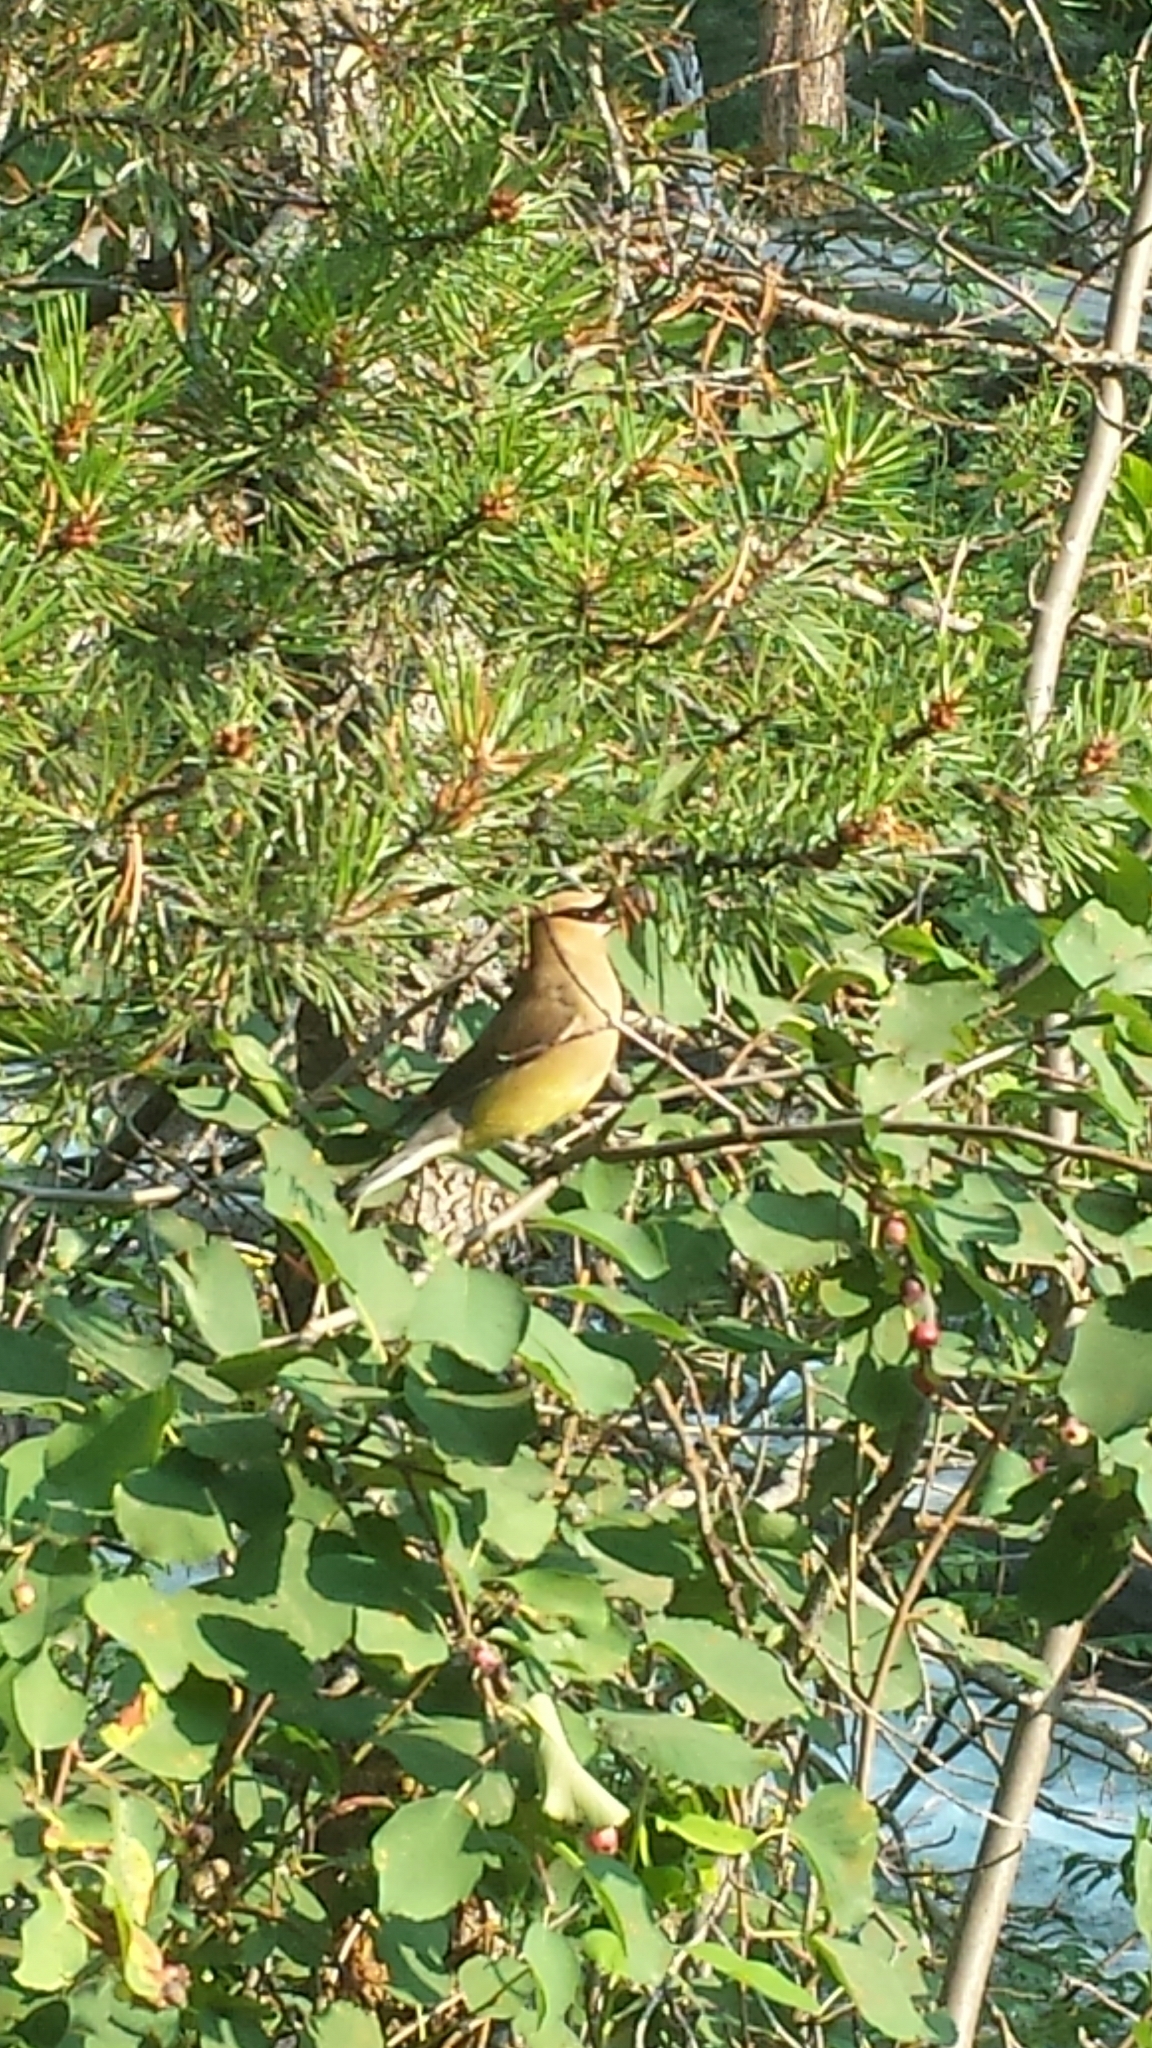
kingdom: Animalia
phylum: Chordata
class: Aves
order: Passeriformes
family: Bombycillidae
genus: Bombycilla
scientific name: Bombycilla cedrorum
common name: Cedar waxwing
